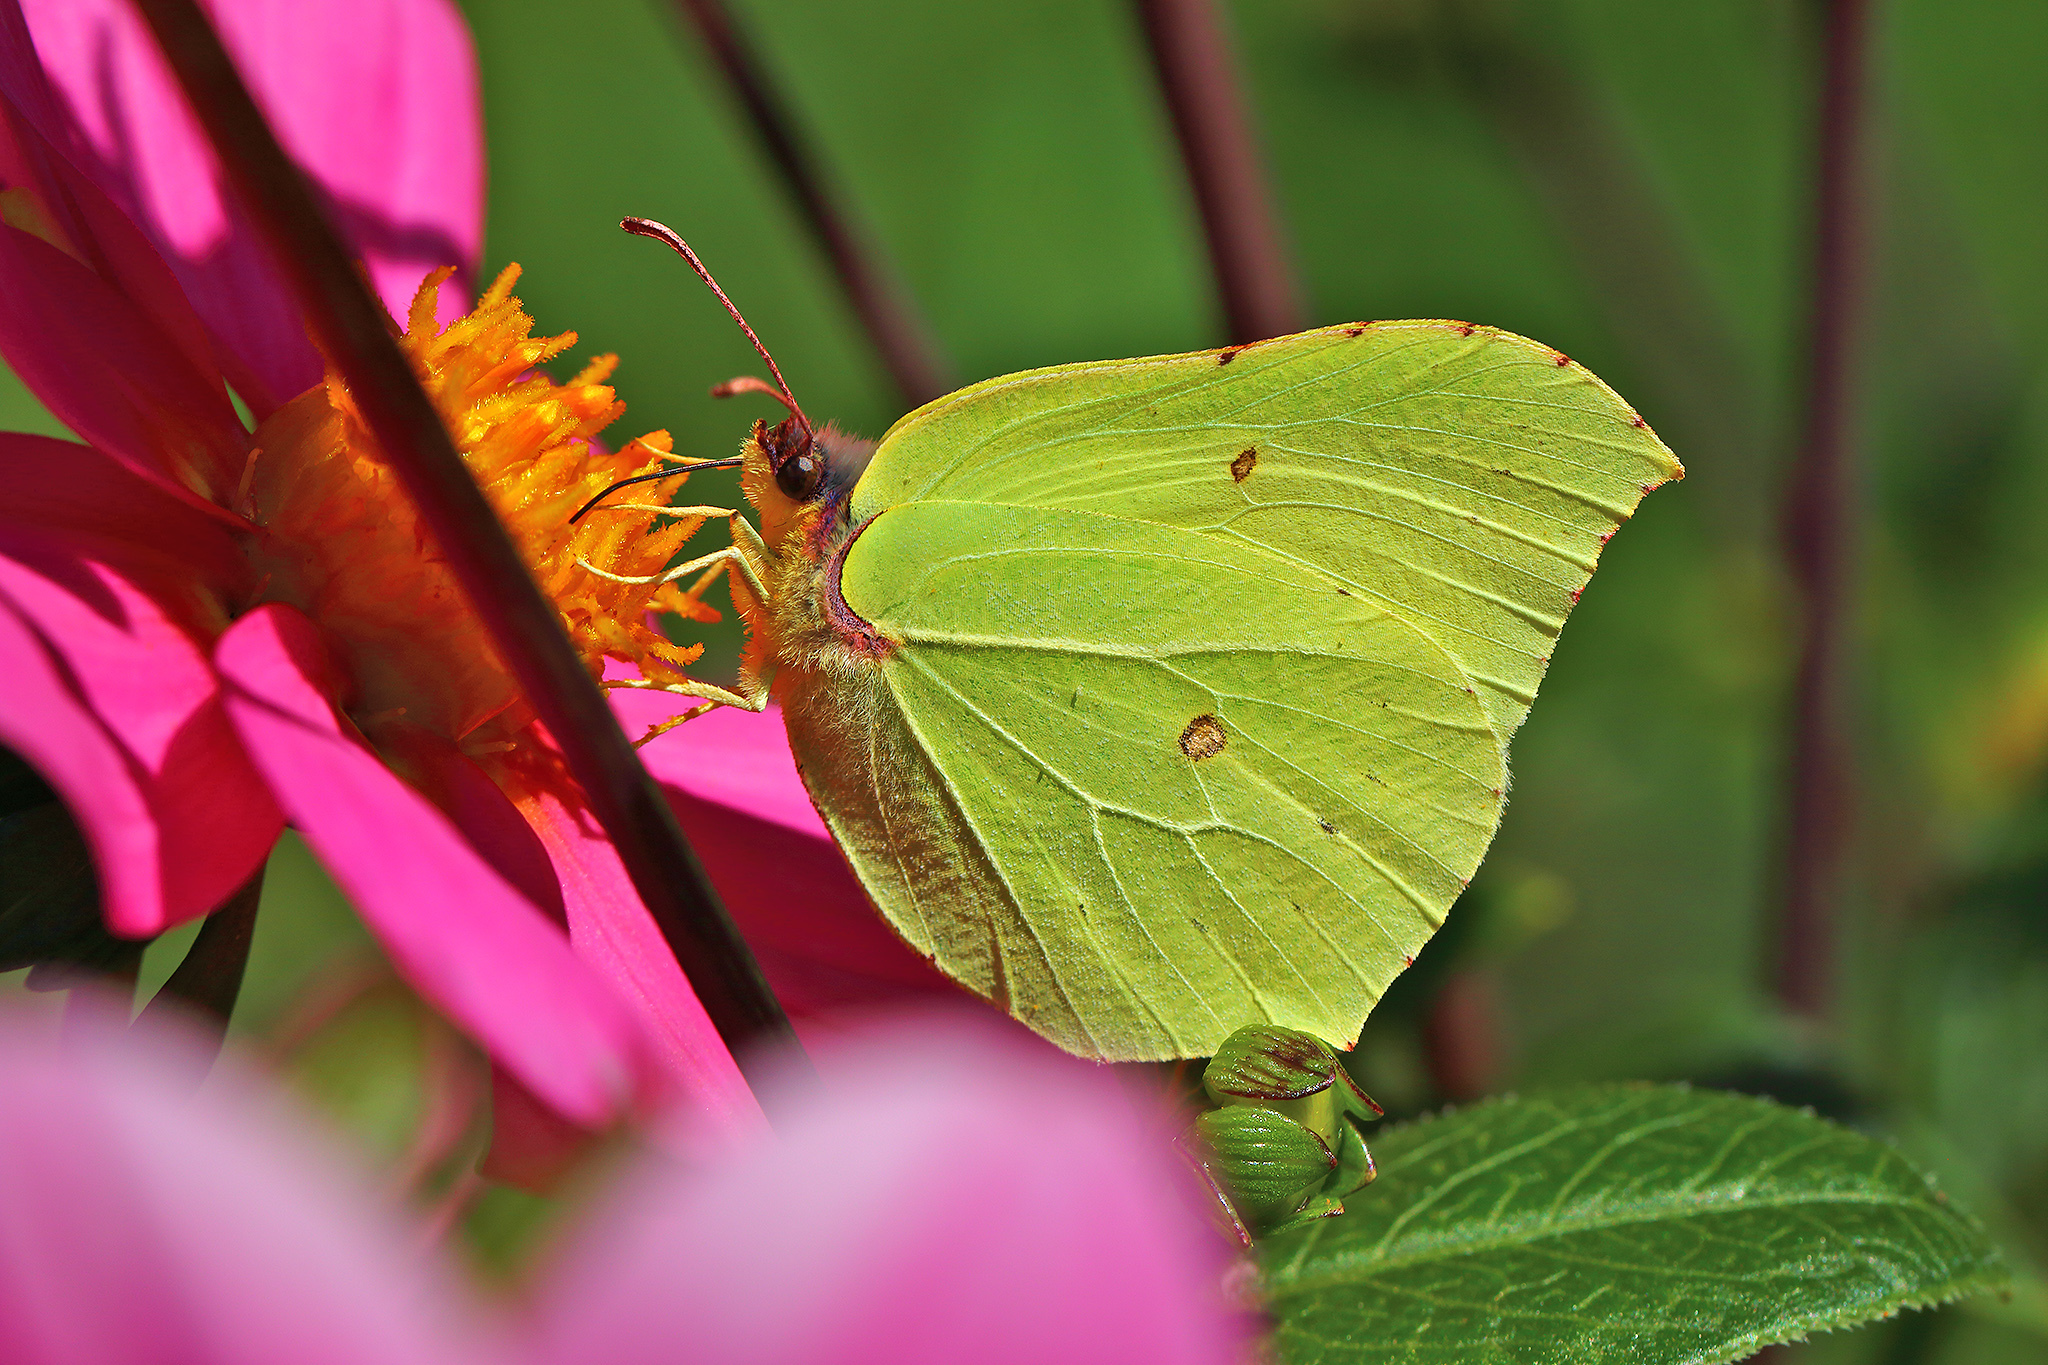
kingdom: Animalia
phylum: Arthropoda
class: Insecta
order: Lepidoptera
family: Pieridae
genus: Gonepteryx
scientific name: Gonepteryx rhamni
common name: Brimstone
